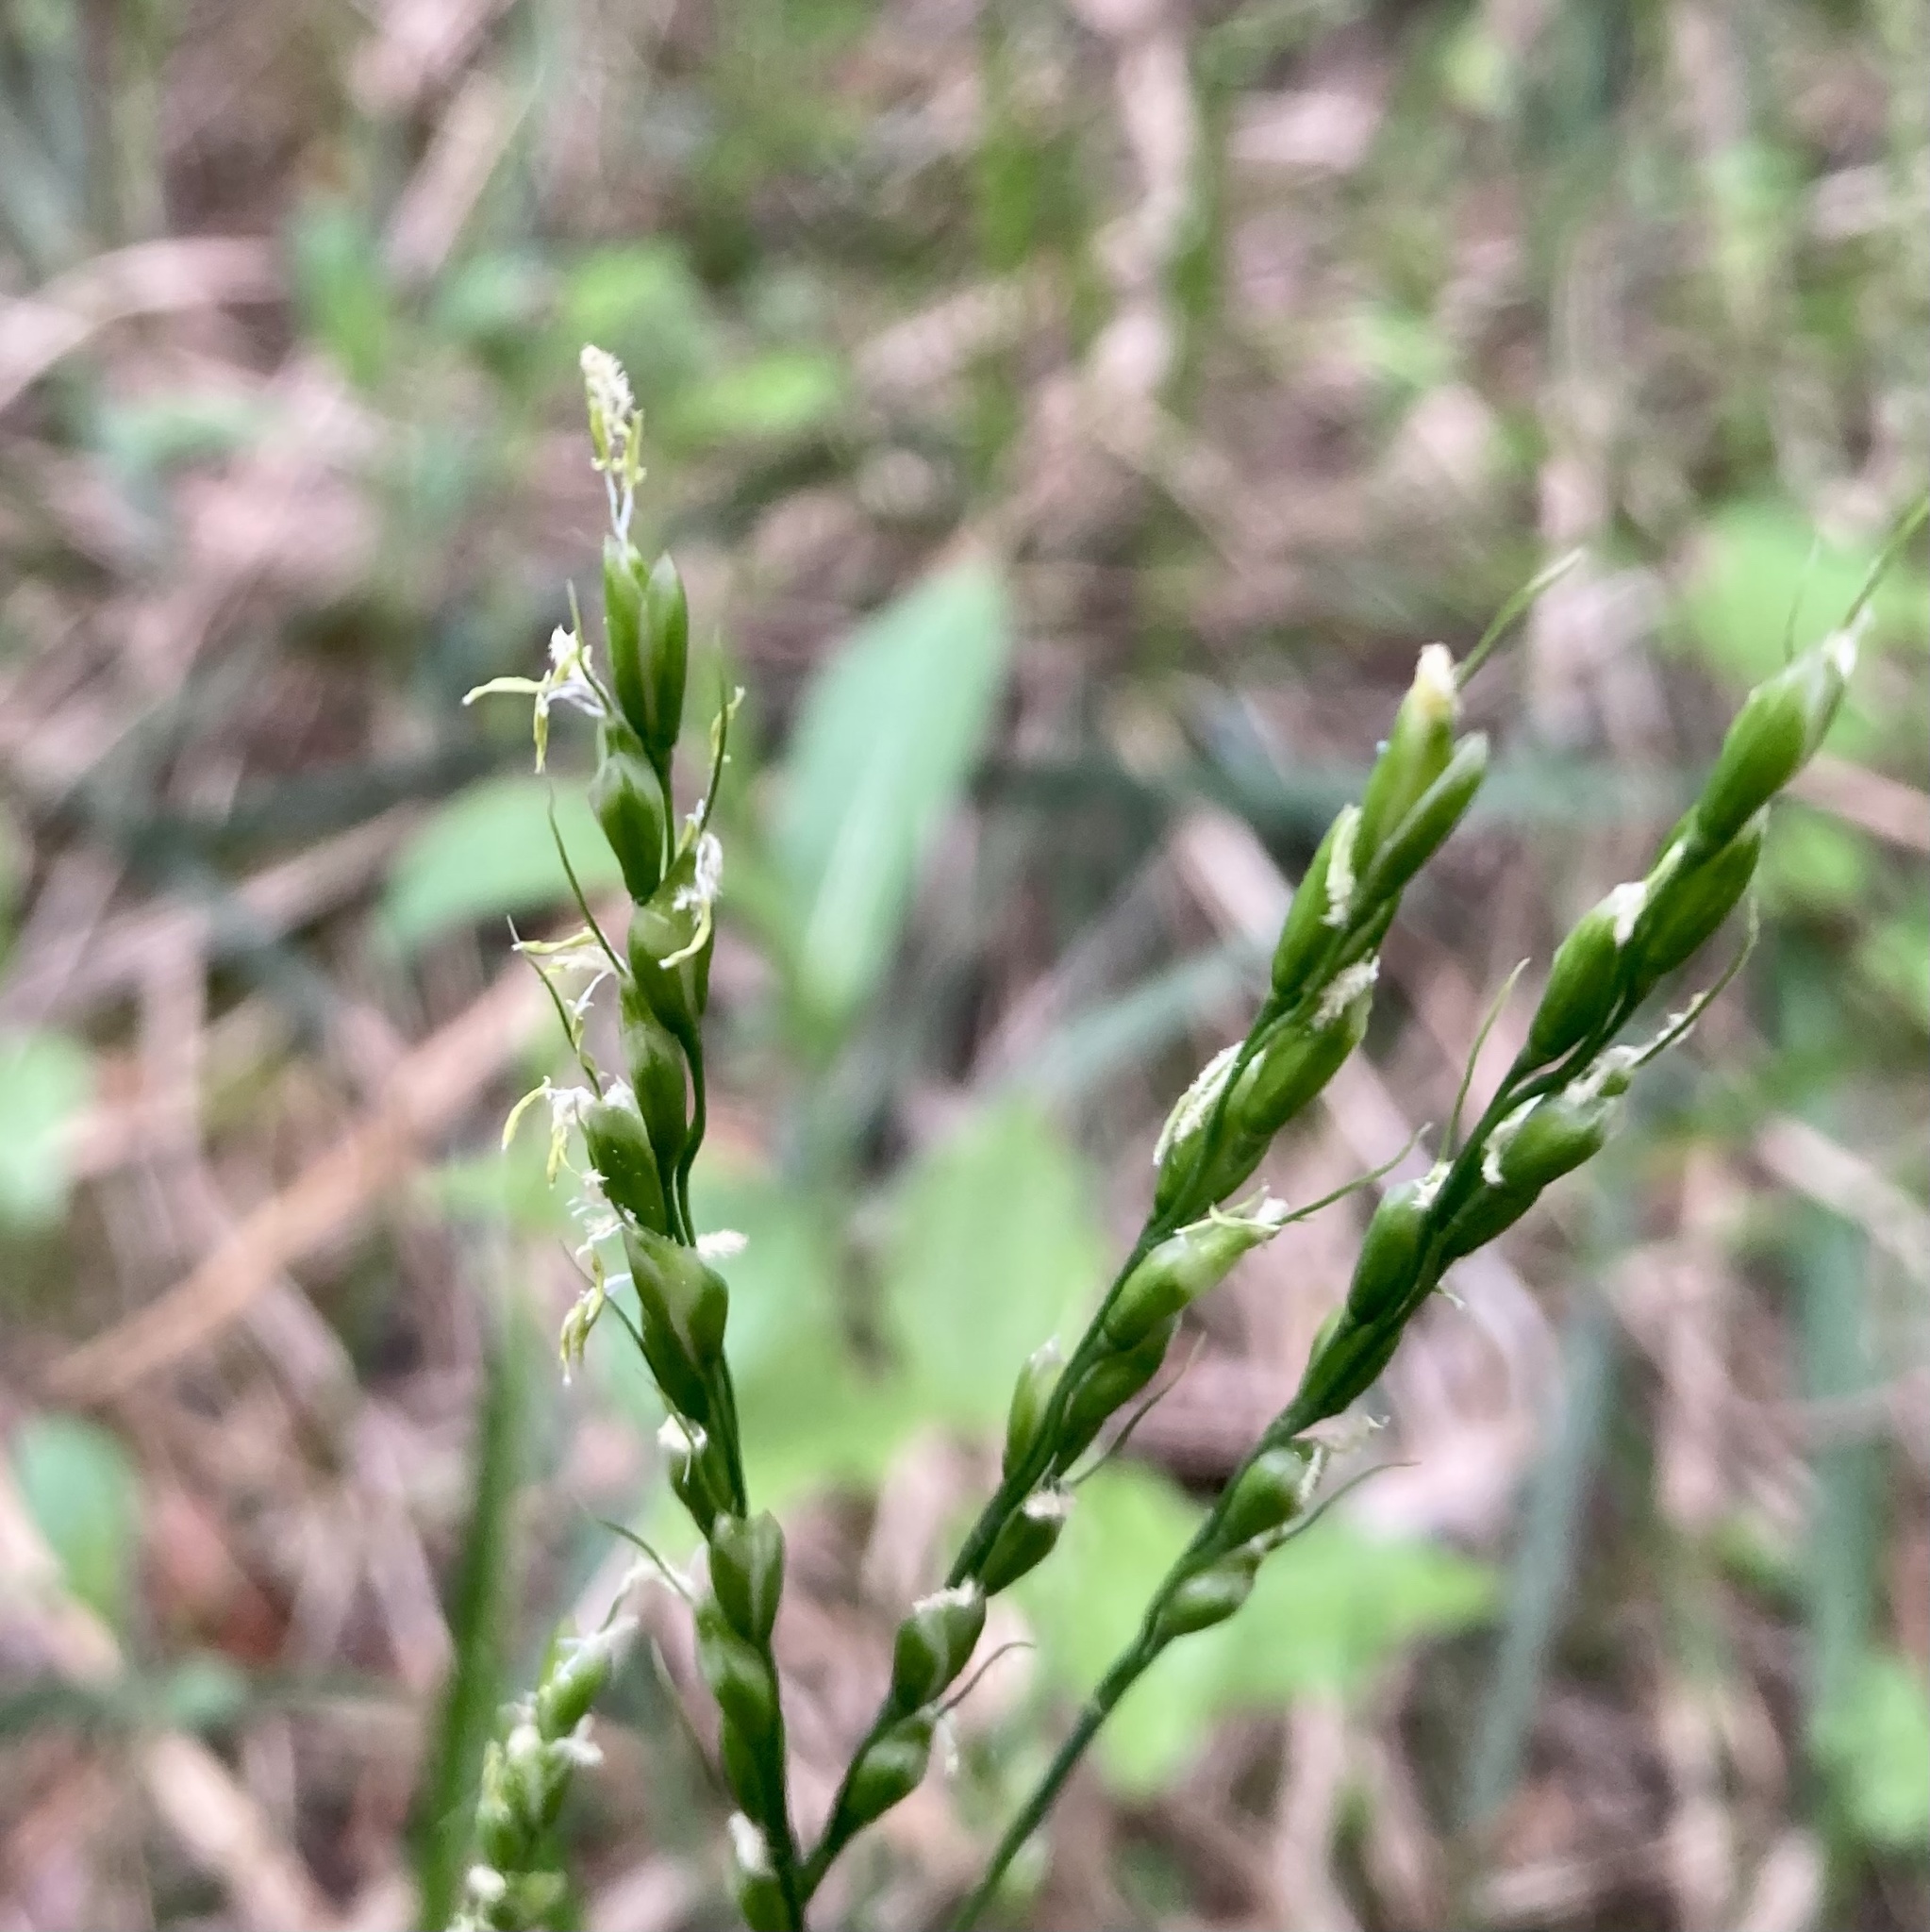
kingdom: Plantae
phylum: Tracheophyta
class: Liliopsida
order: Poales
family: Poaceae
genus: Oryzopsis
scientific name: Oryzopsis asperifolia
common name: Rough-leaved mountain rice
